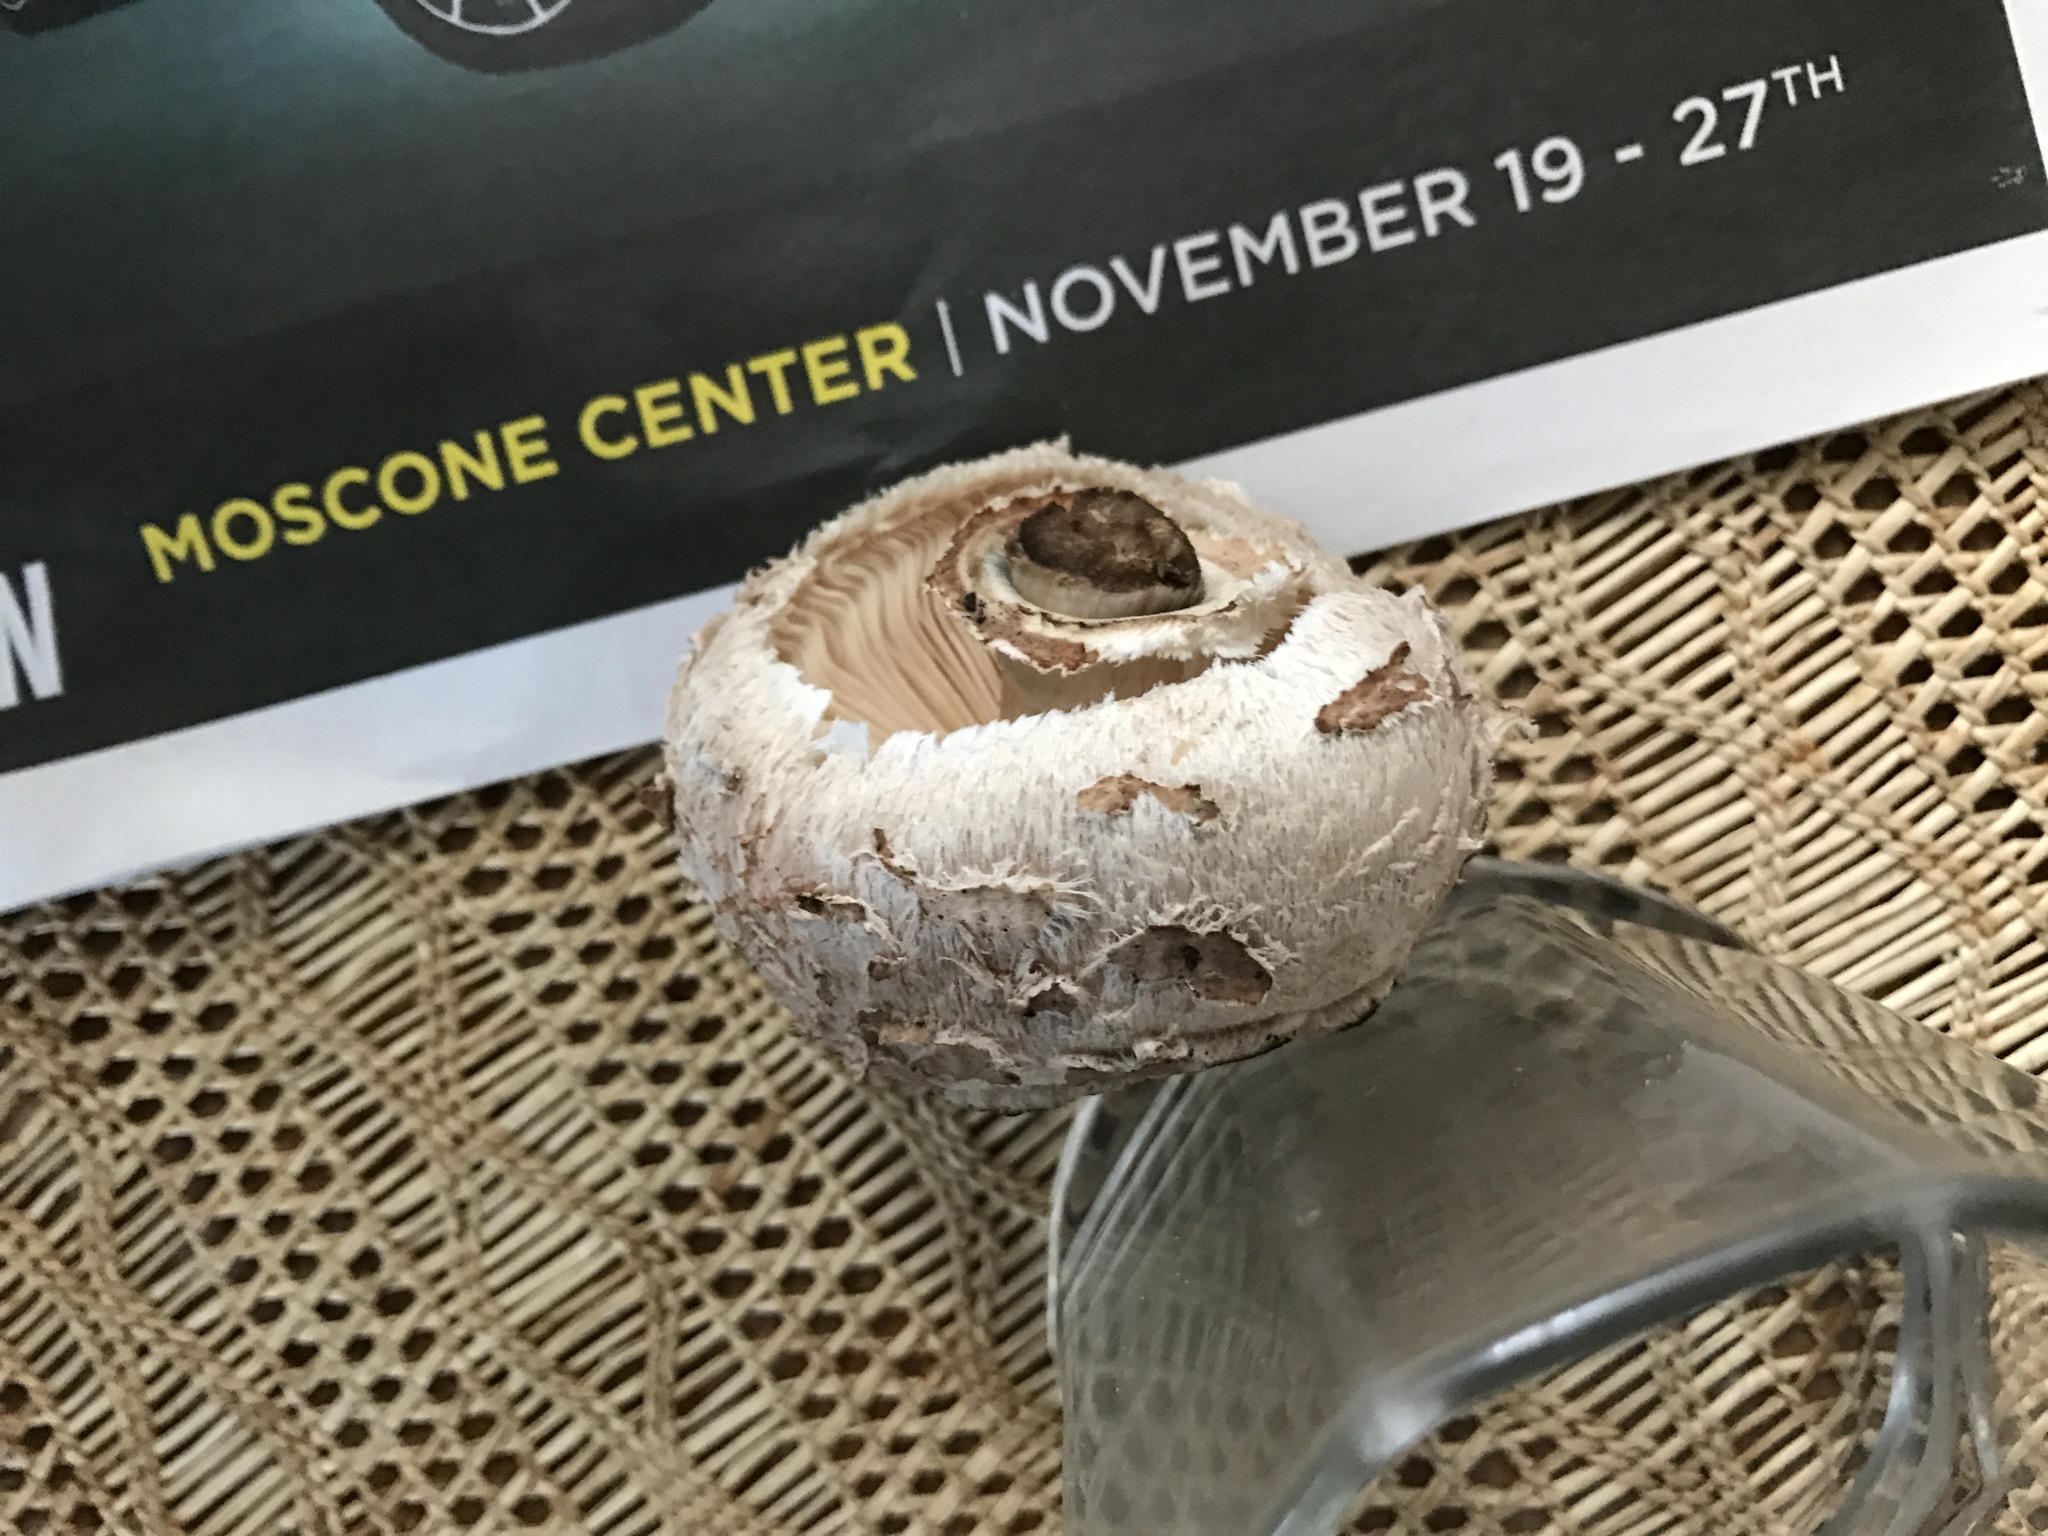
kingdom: Fungi
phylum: Basidiomycota
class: Agaricomycetes
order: Agaricales
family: Agaricaceae
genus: Chlorophyllum
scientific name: Chlorophyllum brunneum
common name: Brown parasol
